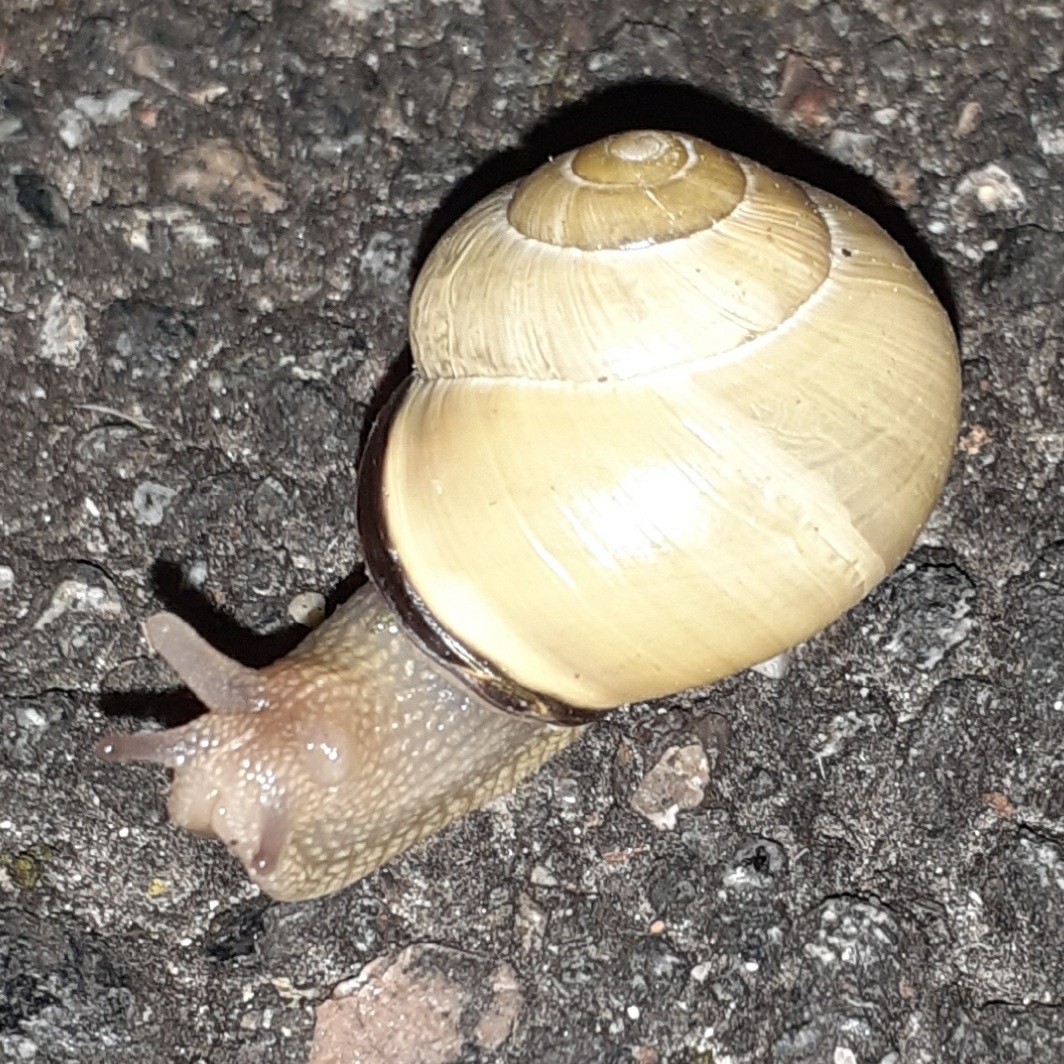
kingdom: Animalia
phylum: Mollusca
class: Gastropoda
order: Stylommatophora
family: Helicidae
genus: Cepaea
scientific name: Cepaea nemoralis
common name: Grovesnail
